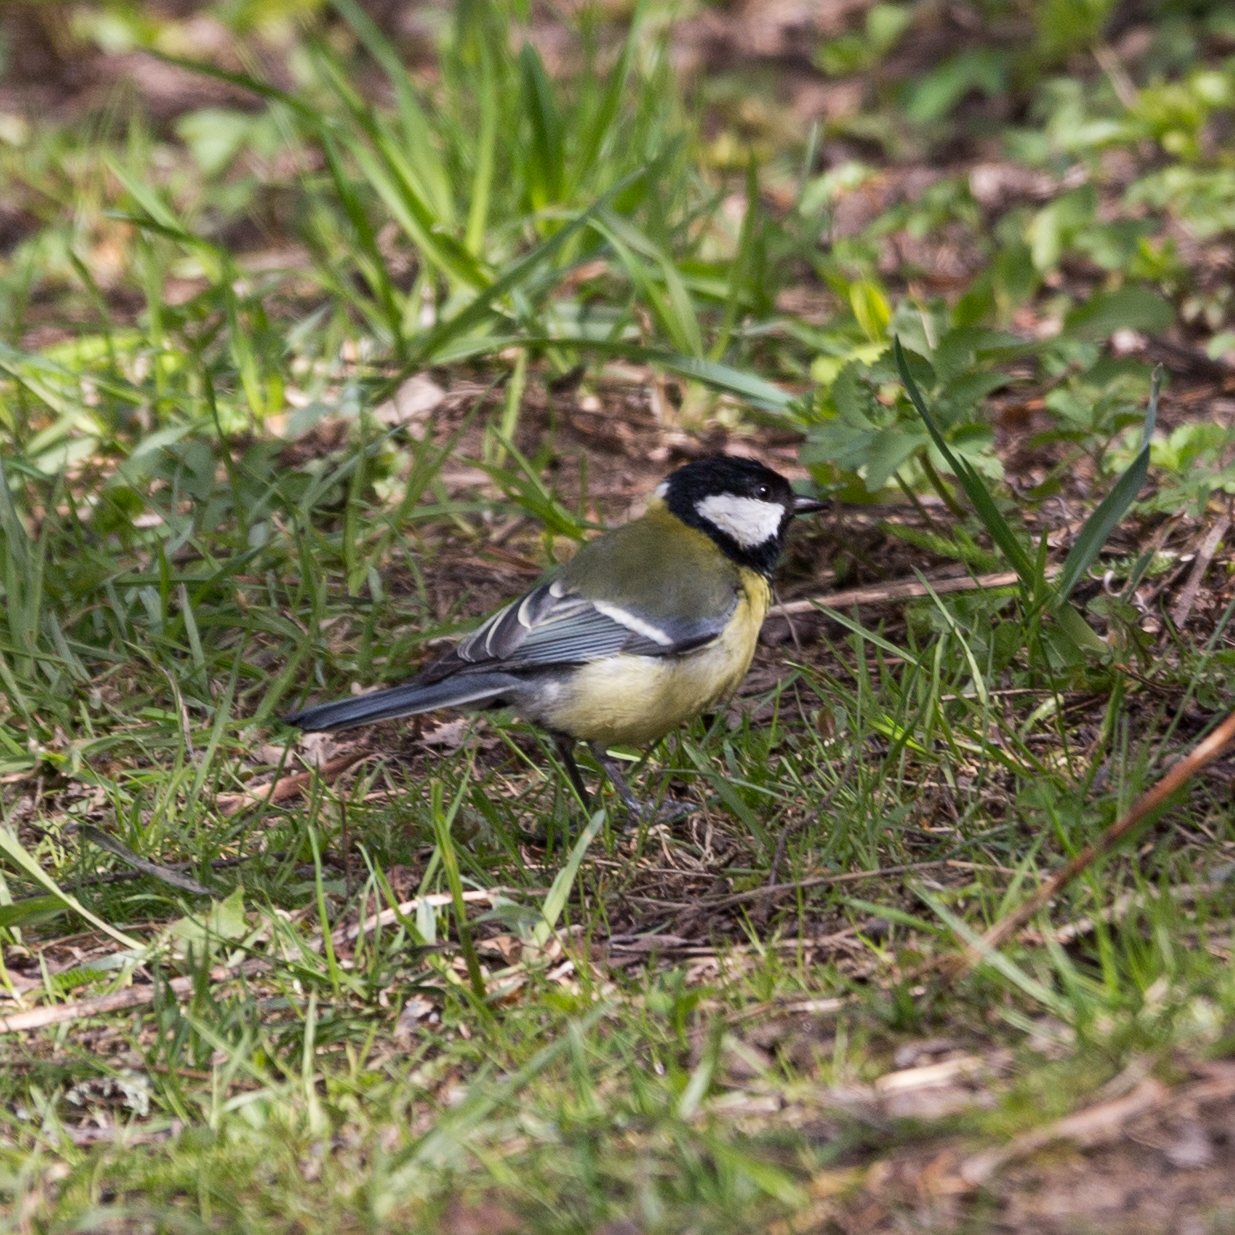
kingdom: Animalia
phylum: Chordata
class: Aves
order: Passeriformes
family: Paridae
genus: Parus
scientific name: Parus major
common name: Great tit
